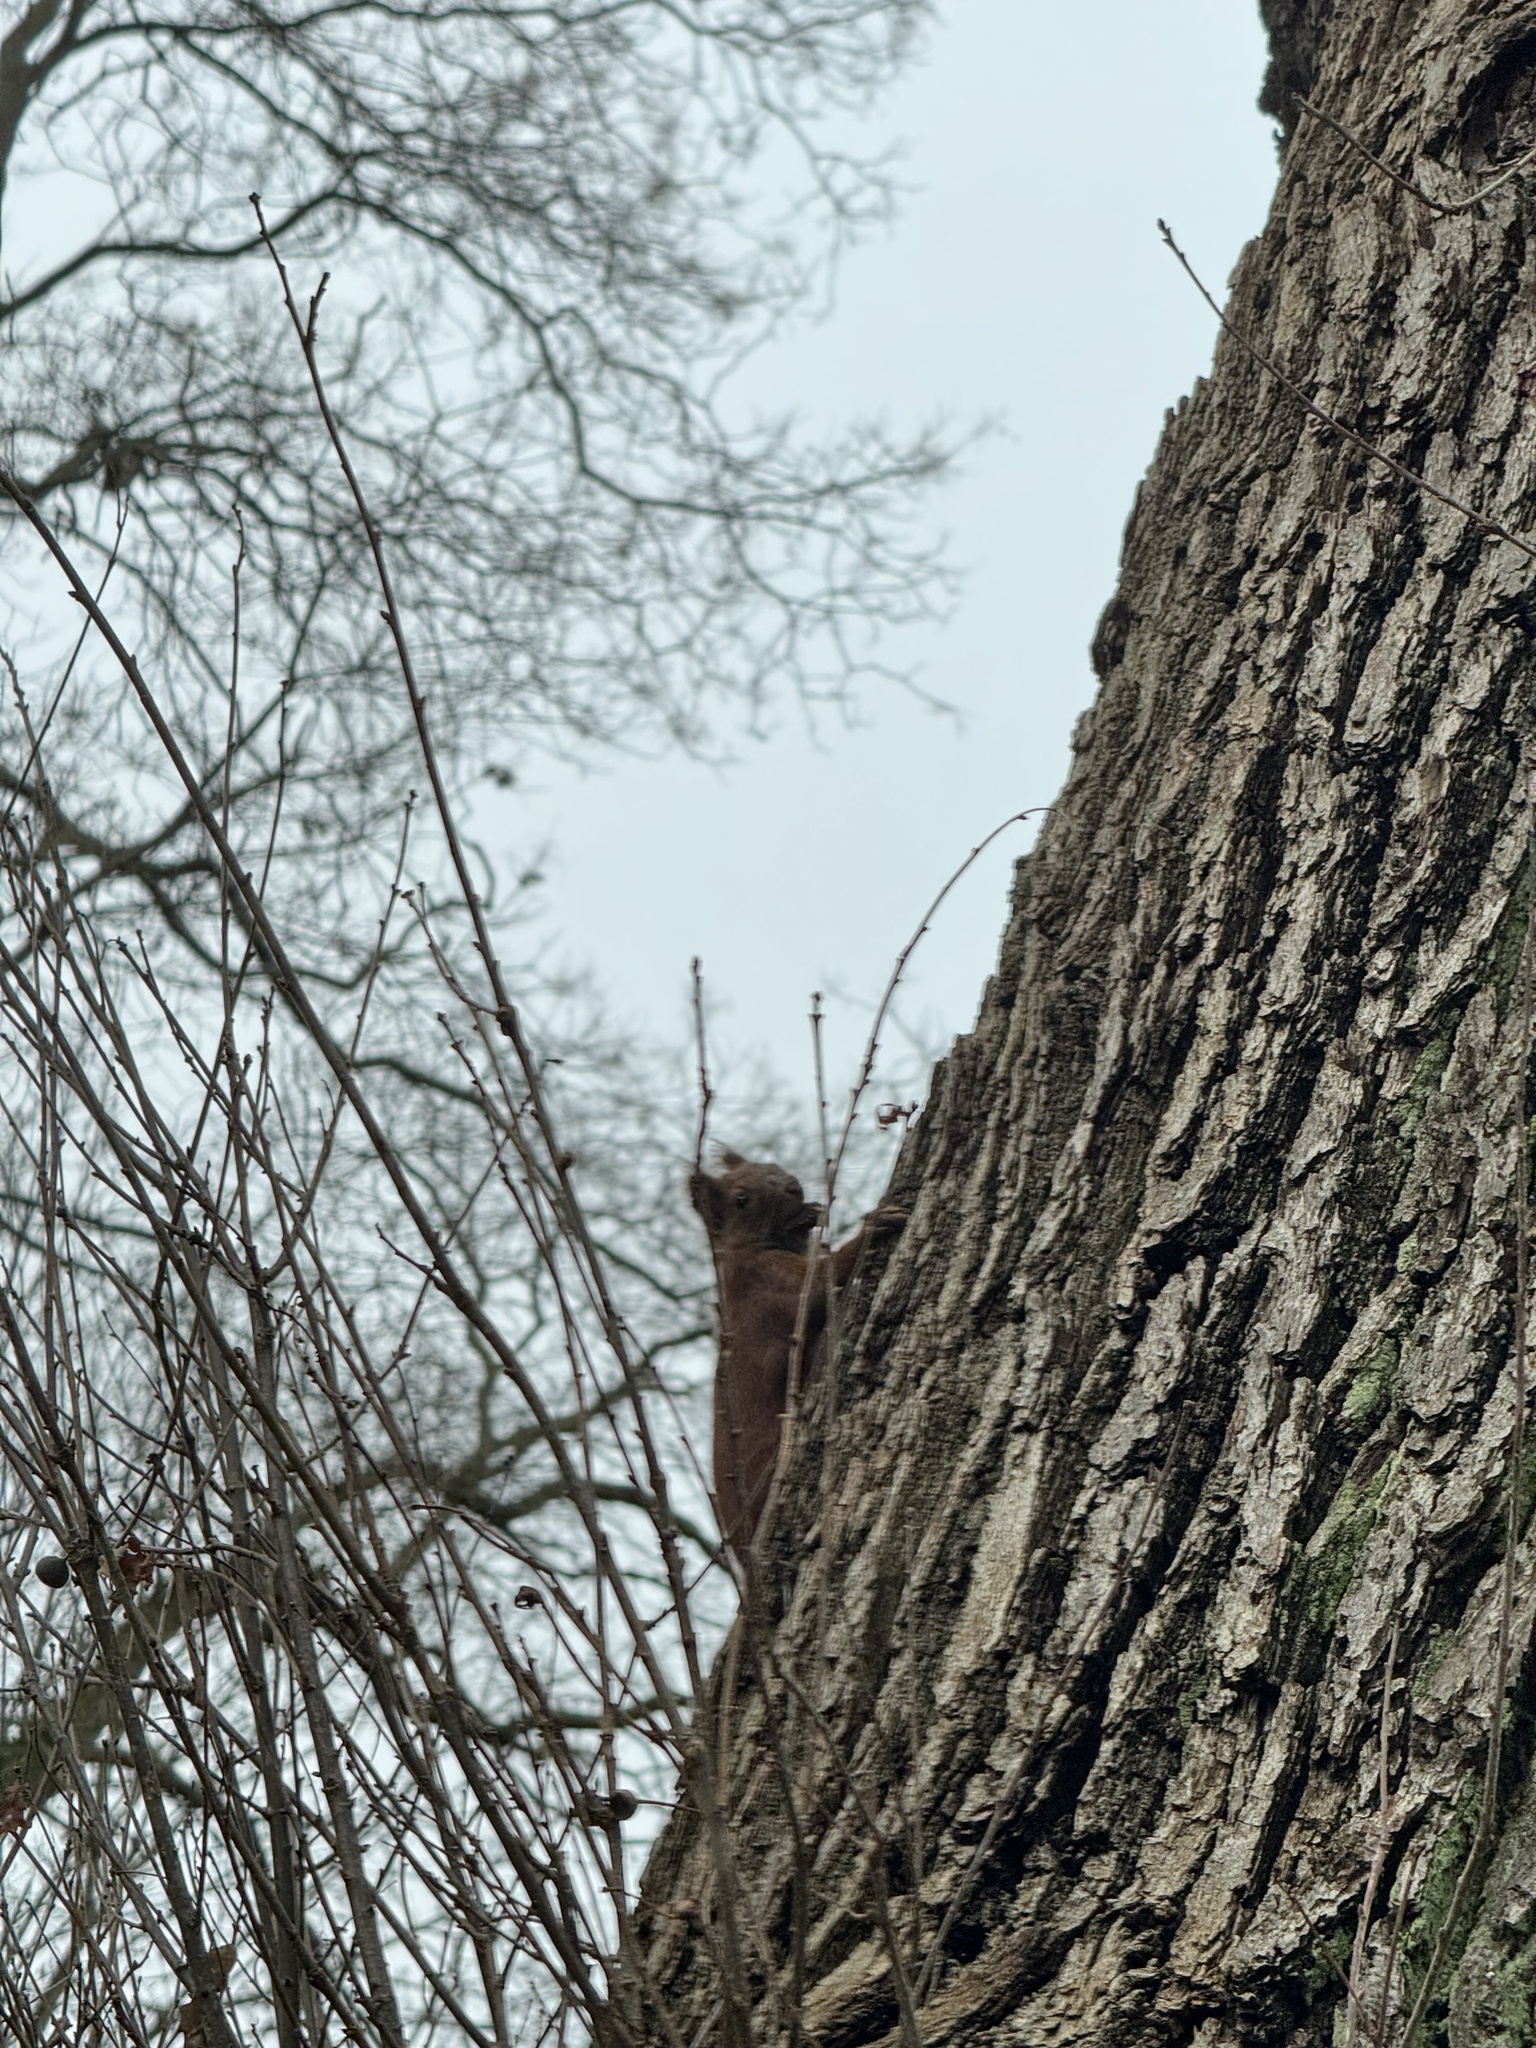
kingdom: Animalia
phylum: Chordata
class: Mammalia
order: Rodentia
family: Sciuridae
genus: Sciurus
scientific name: Sciurus vulgaris
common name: Eurasian red squirrel
